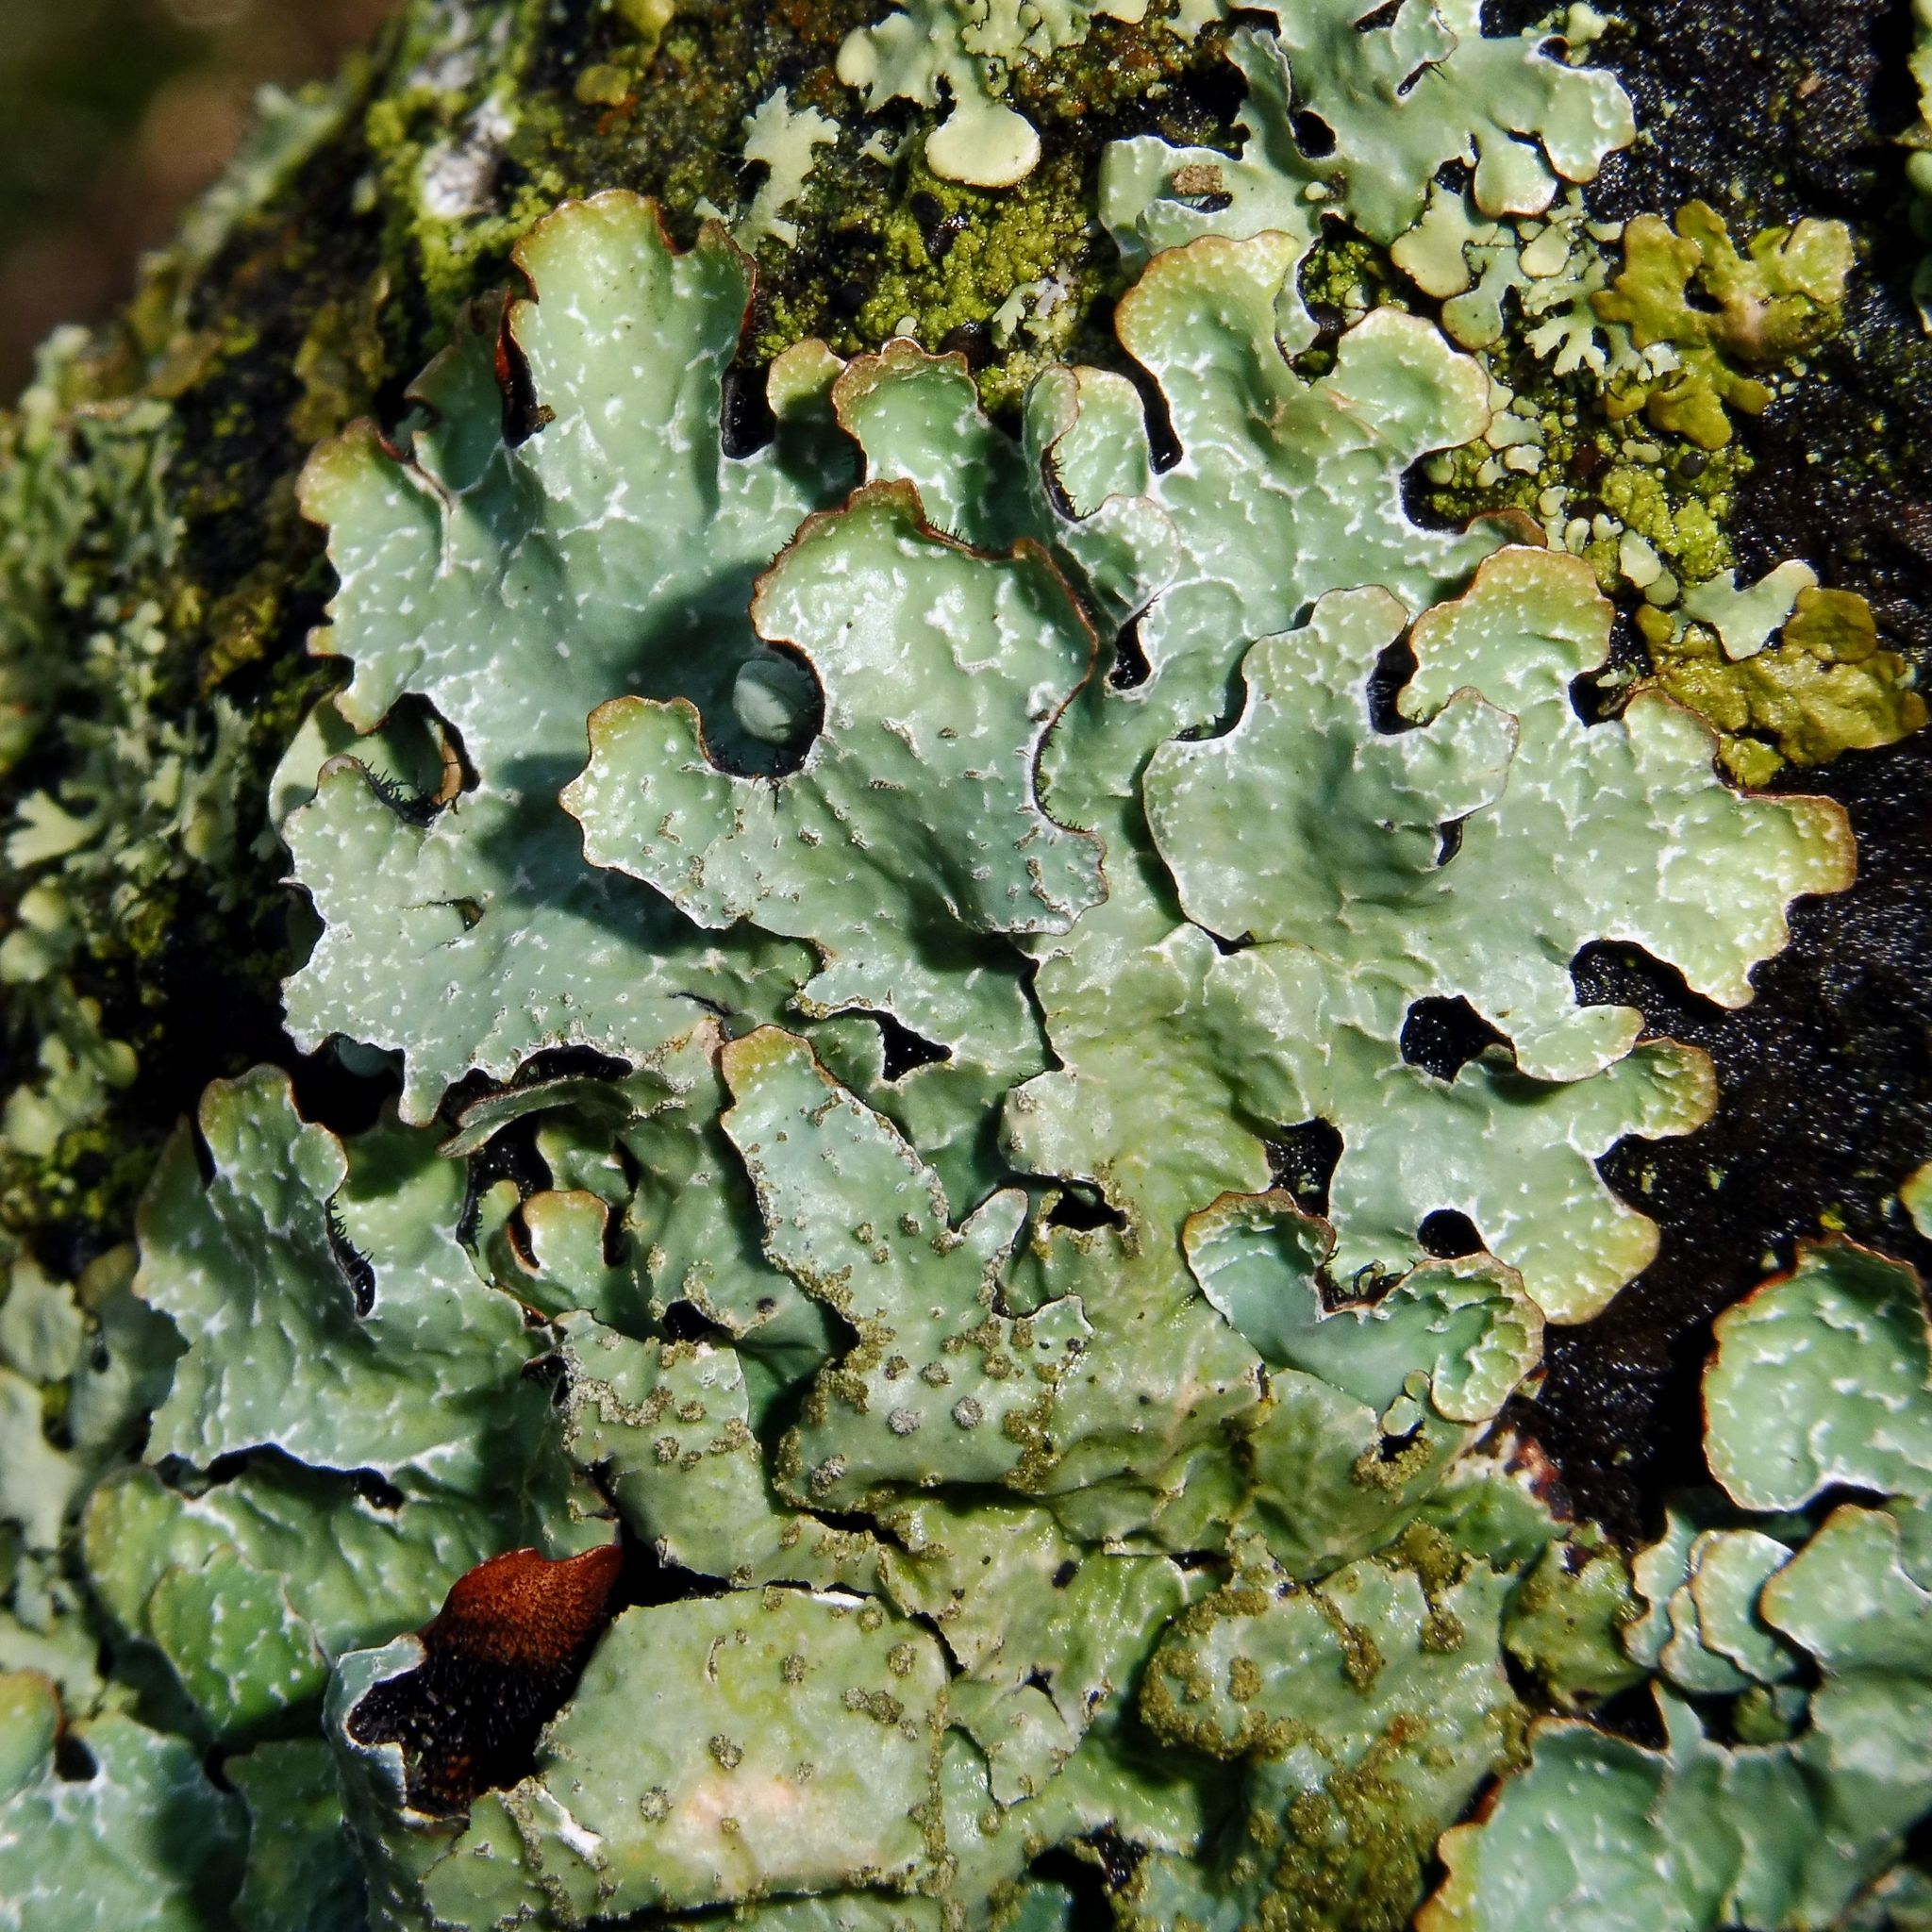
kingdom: Fungi
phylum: Ascomycota
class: Lecanoromycetes
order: Lecanorales
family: Parmeliaceae
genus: Parmelia
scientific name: Parmelia sulcata
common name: Netted shield lichen
